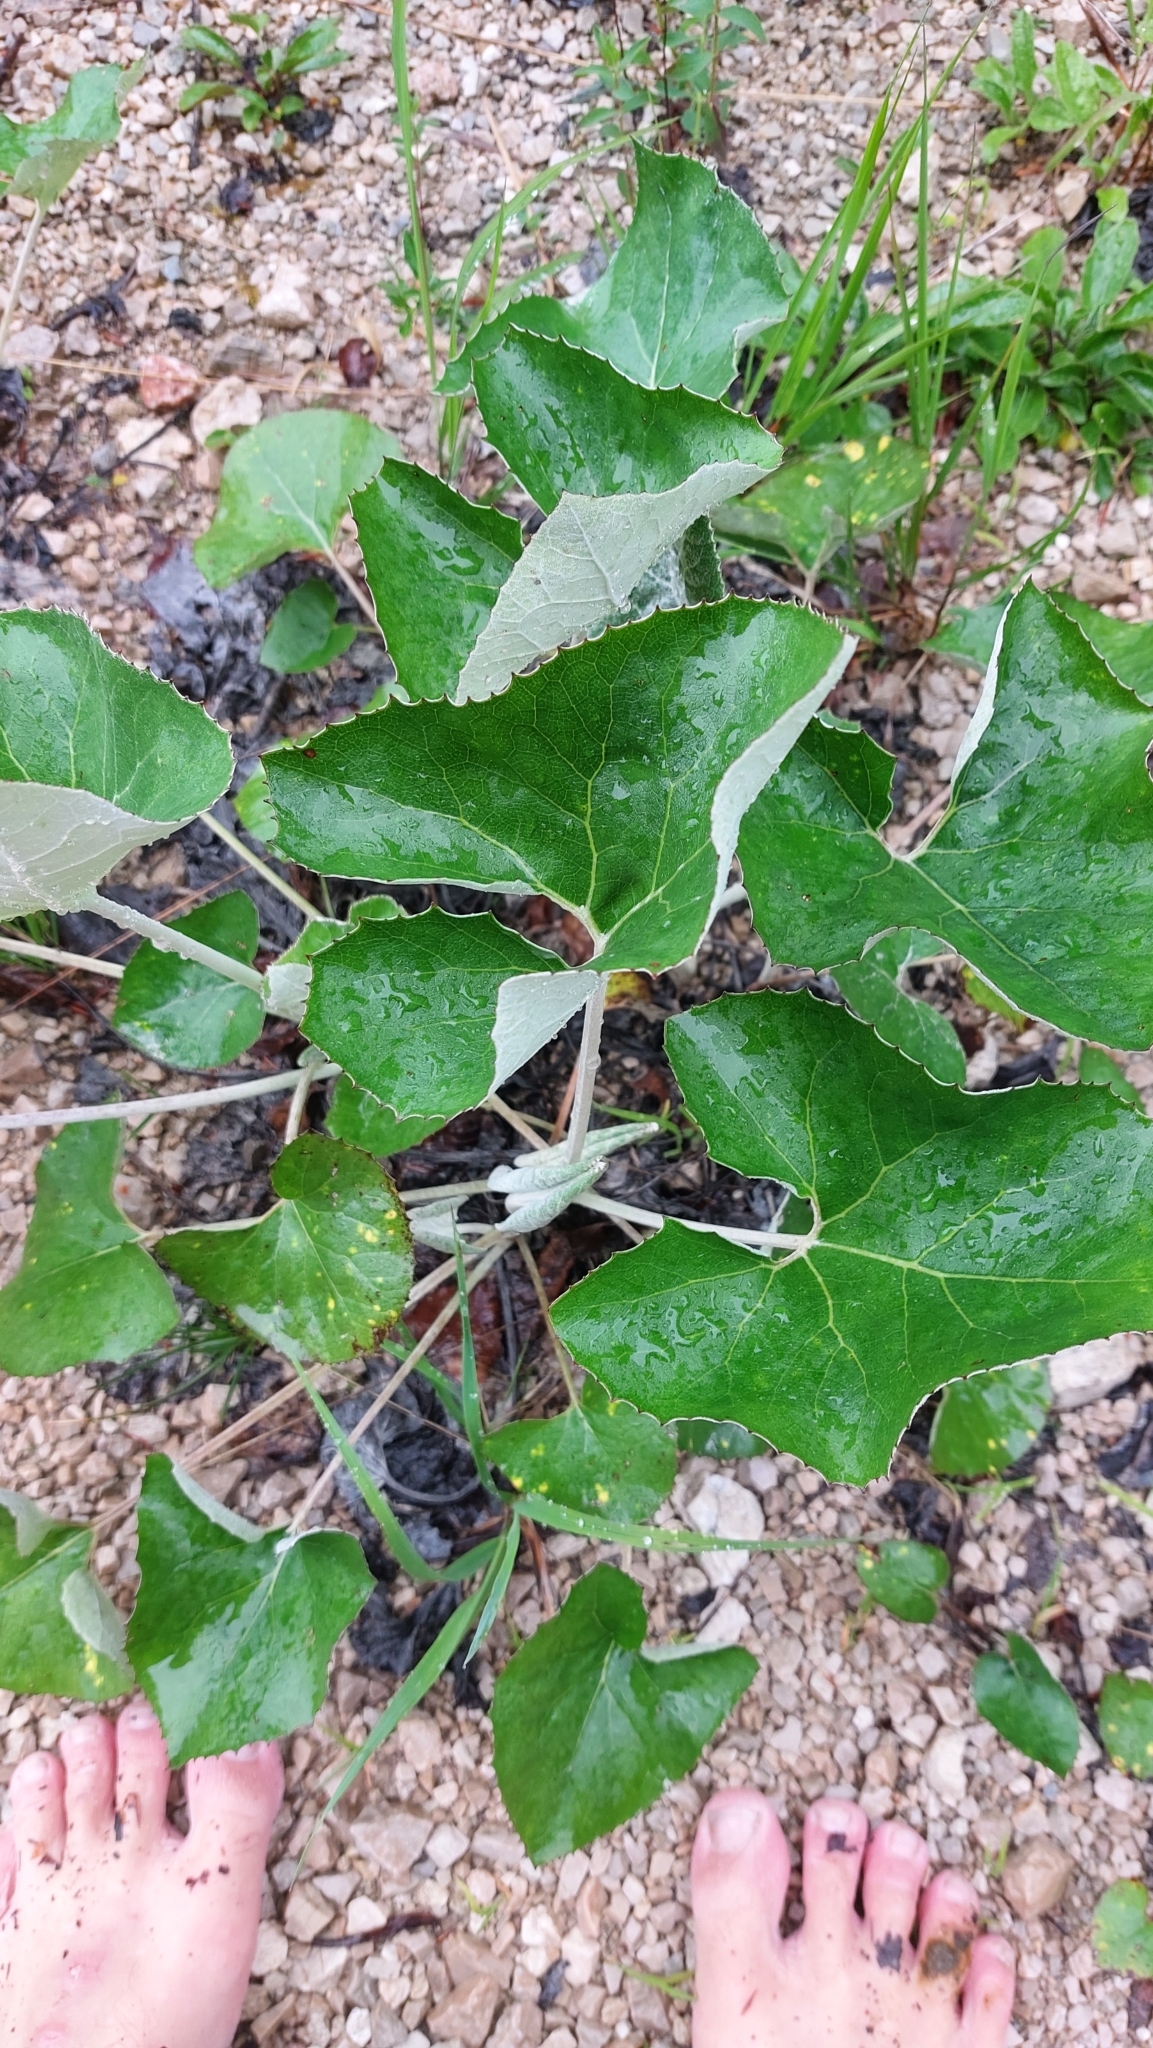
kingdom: Plantae
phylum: Tracheophyta
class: Magnoliopsida
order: Asterales
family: Asteraceae
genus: Petasites
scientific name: Petasites paradoxus
